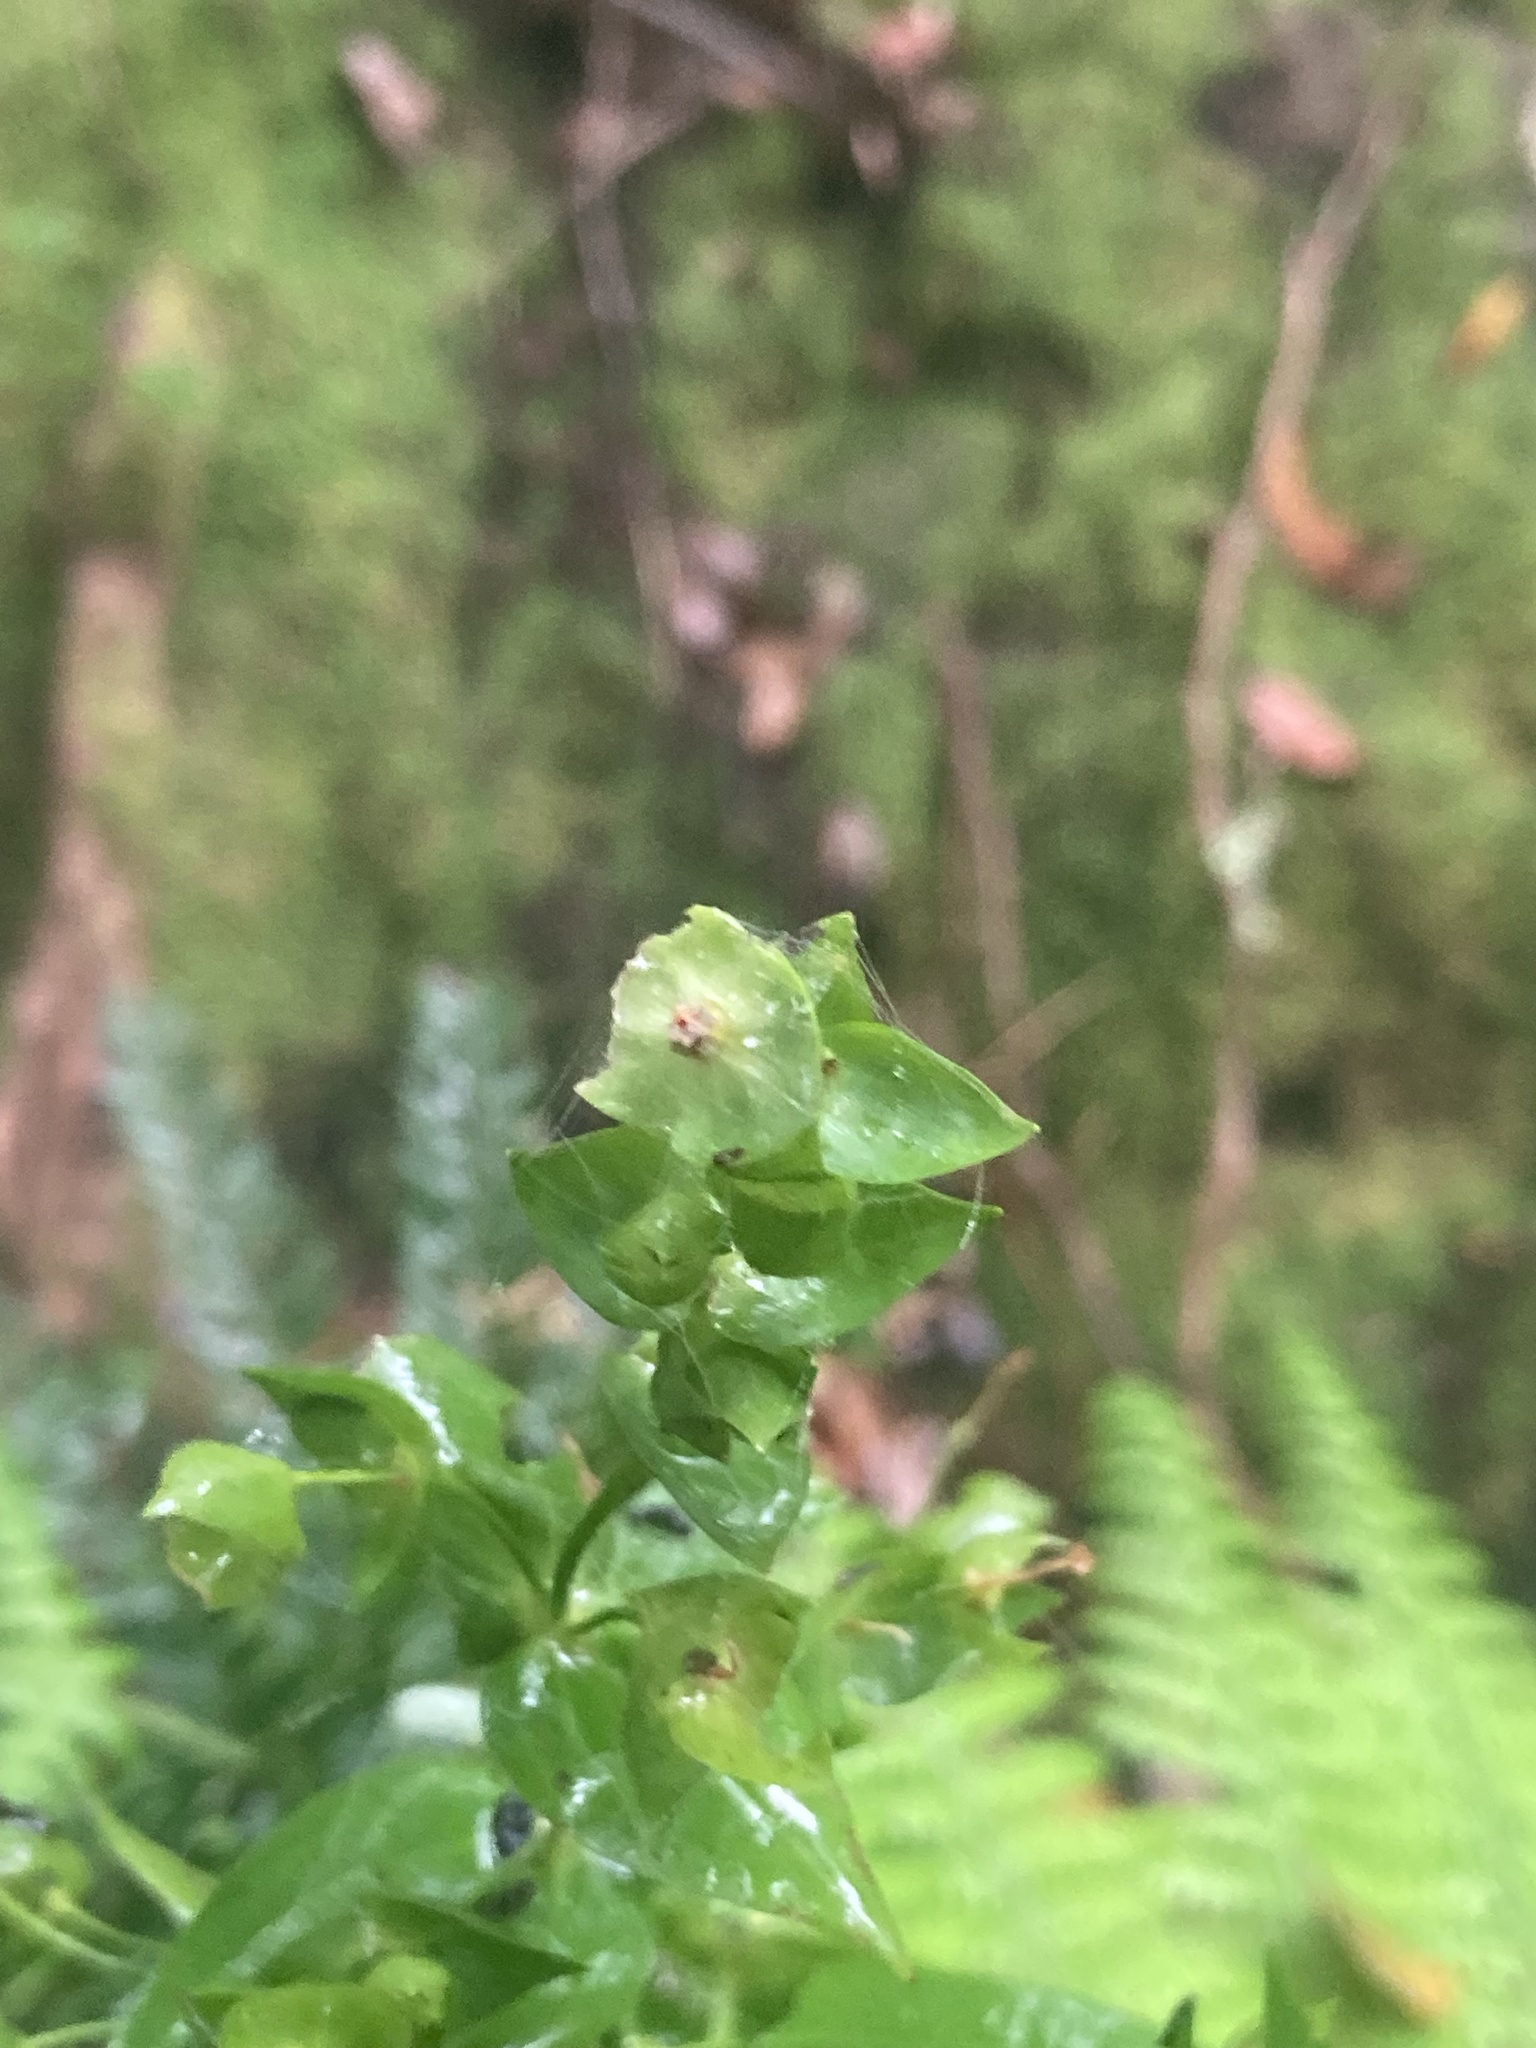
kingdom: Plantae
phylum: Tracheophyta
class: Magnoliopsida
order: Gentianales
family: Gentianaceae
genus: Ixanthus
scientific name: Ixanthus viscosus
